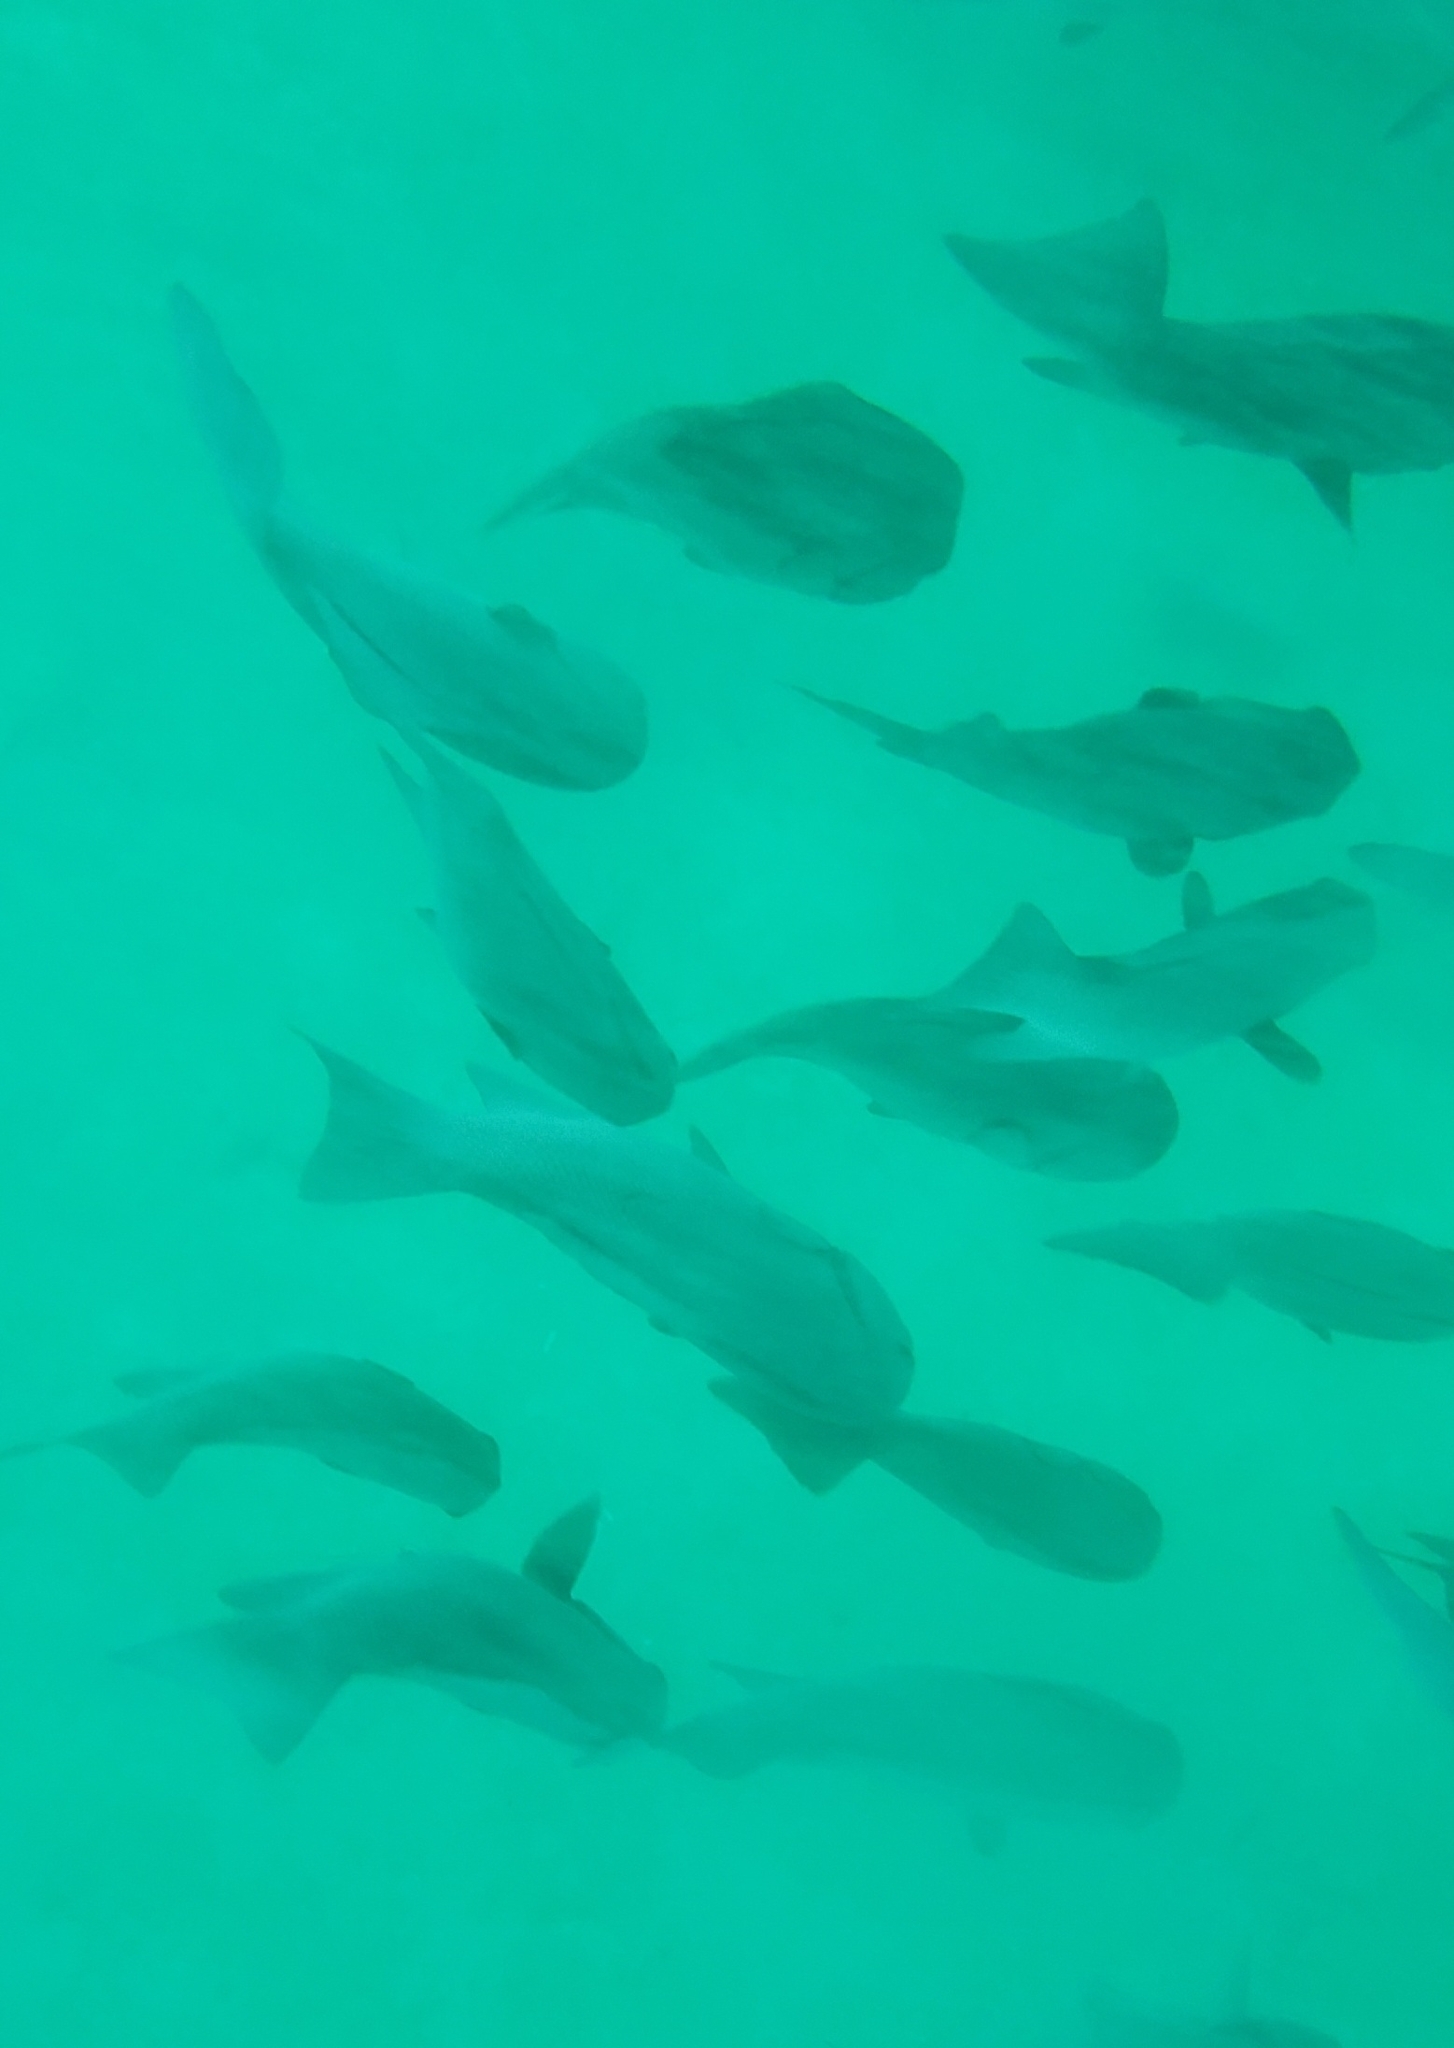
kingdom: Animalia
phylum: Chordata
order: Perciformes
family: Kyphosidae
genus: Girella
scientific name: Girella freminvillii
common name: Dusky sea-chub
